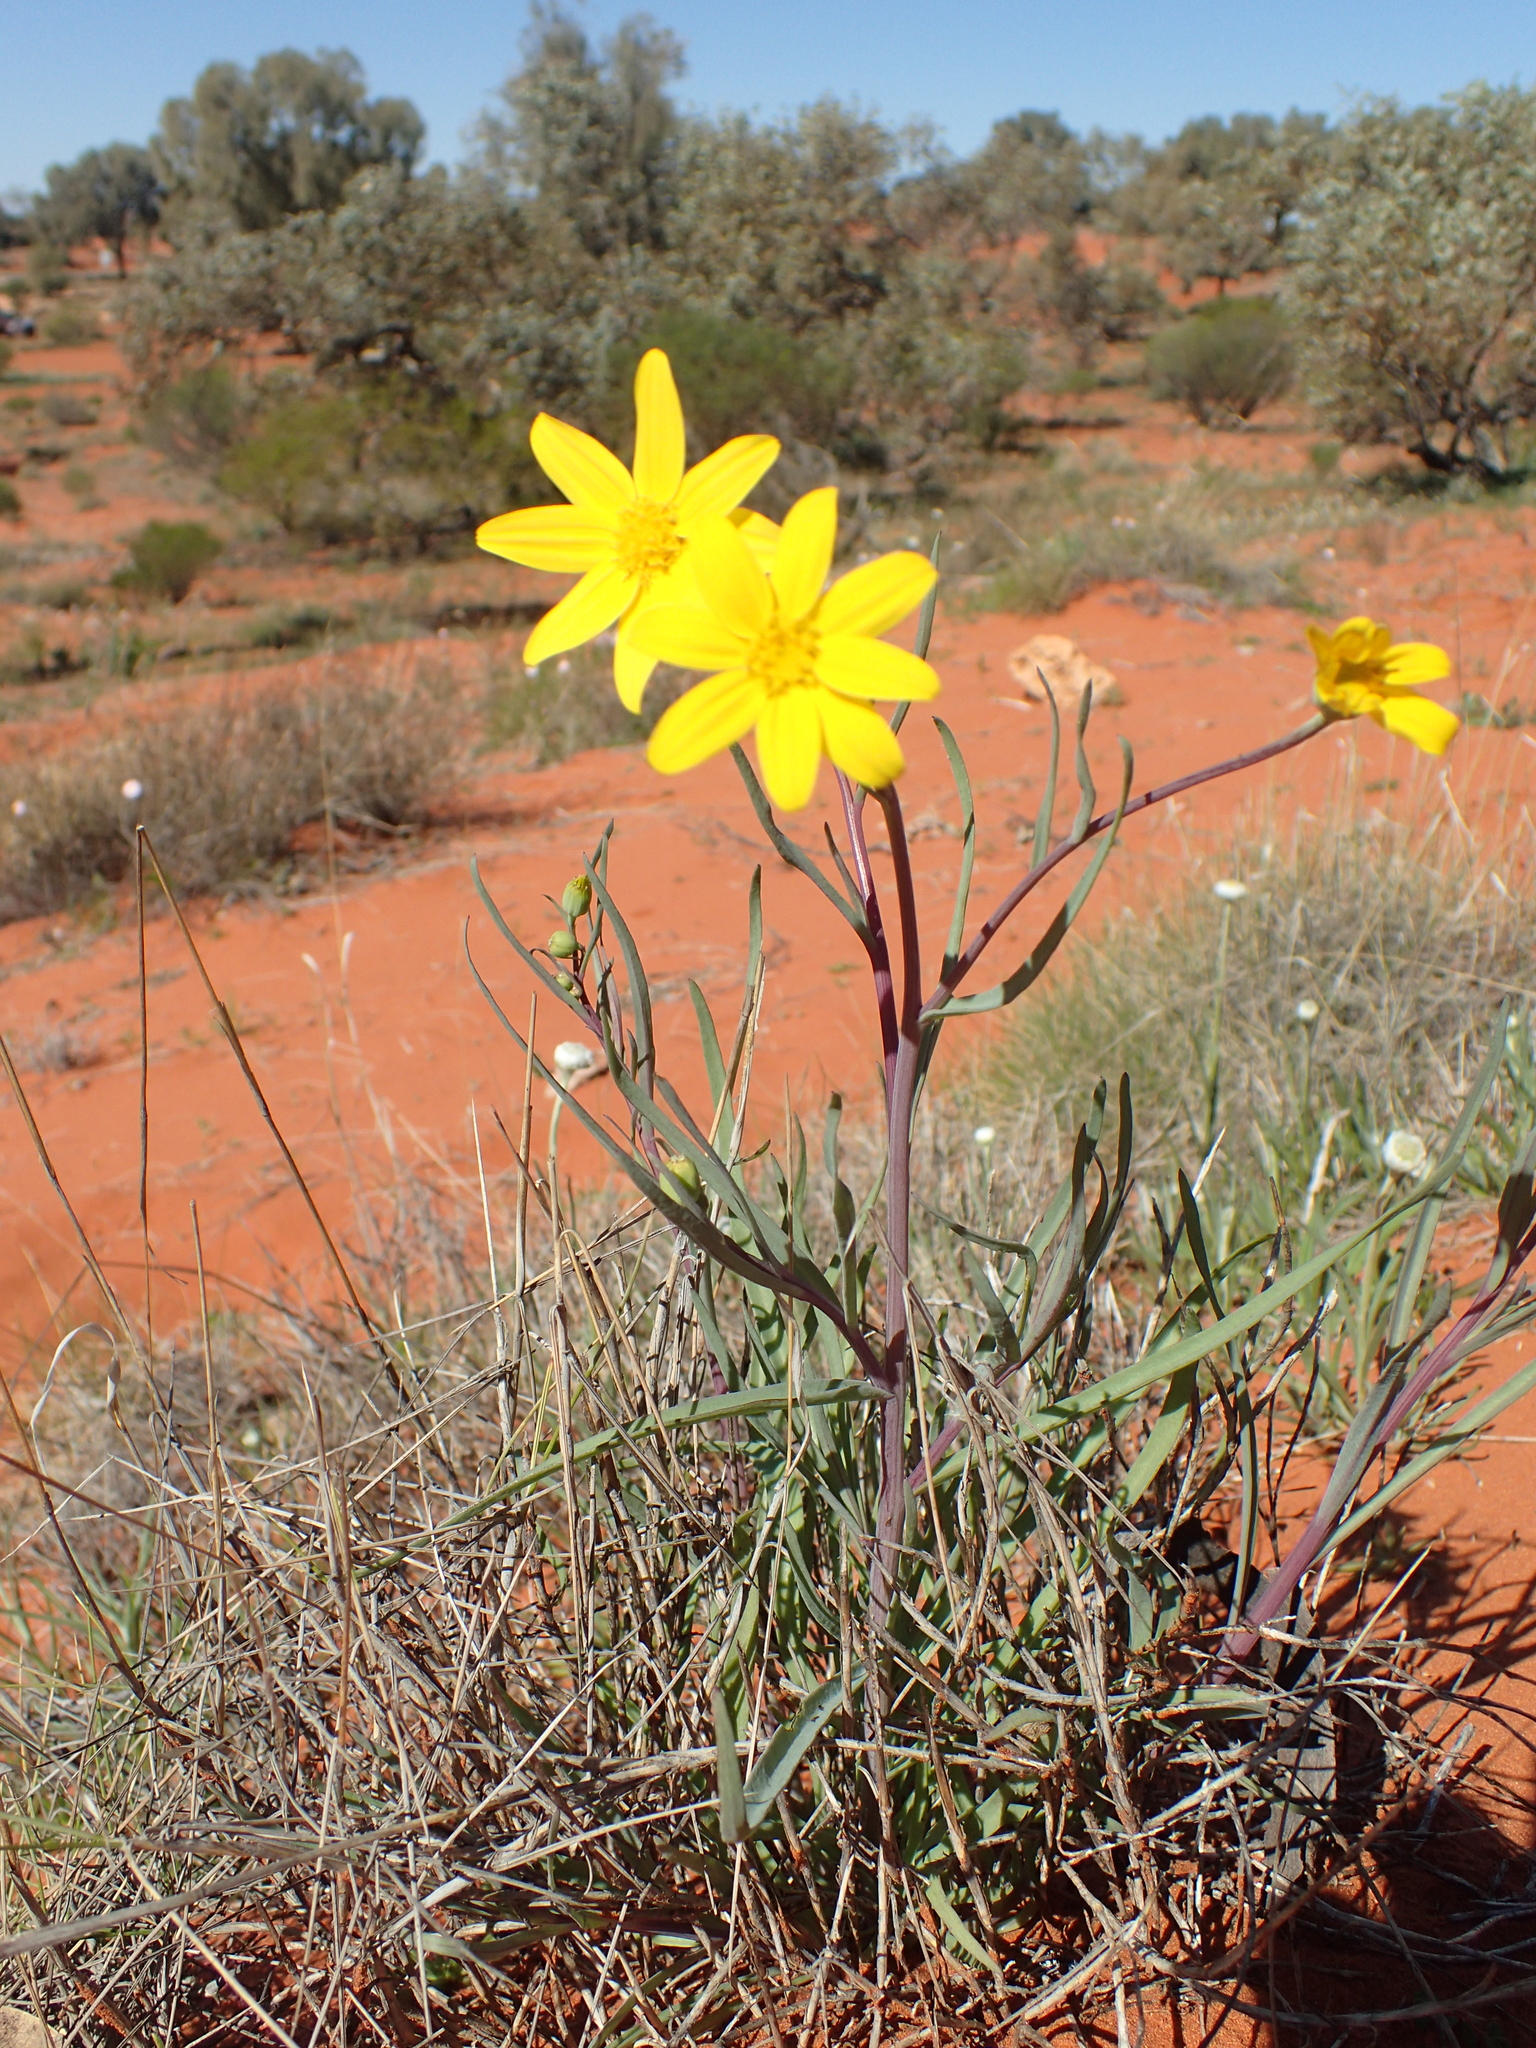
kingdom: Plantae
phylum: Tracheophyta
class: Magnoliopsida
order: Asterales
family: Asteraceae
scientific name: Asteraceae
